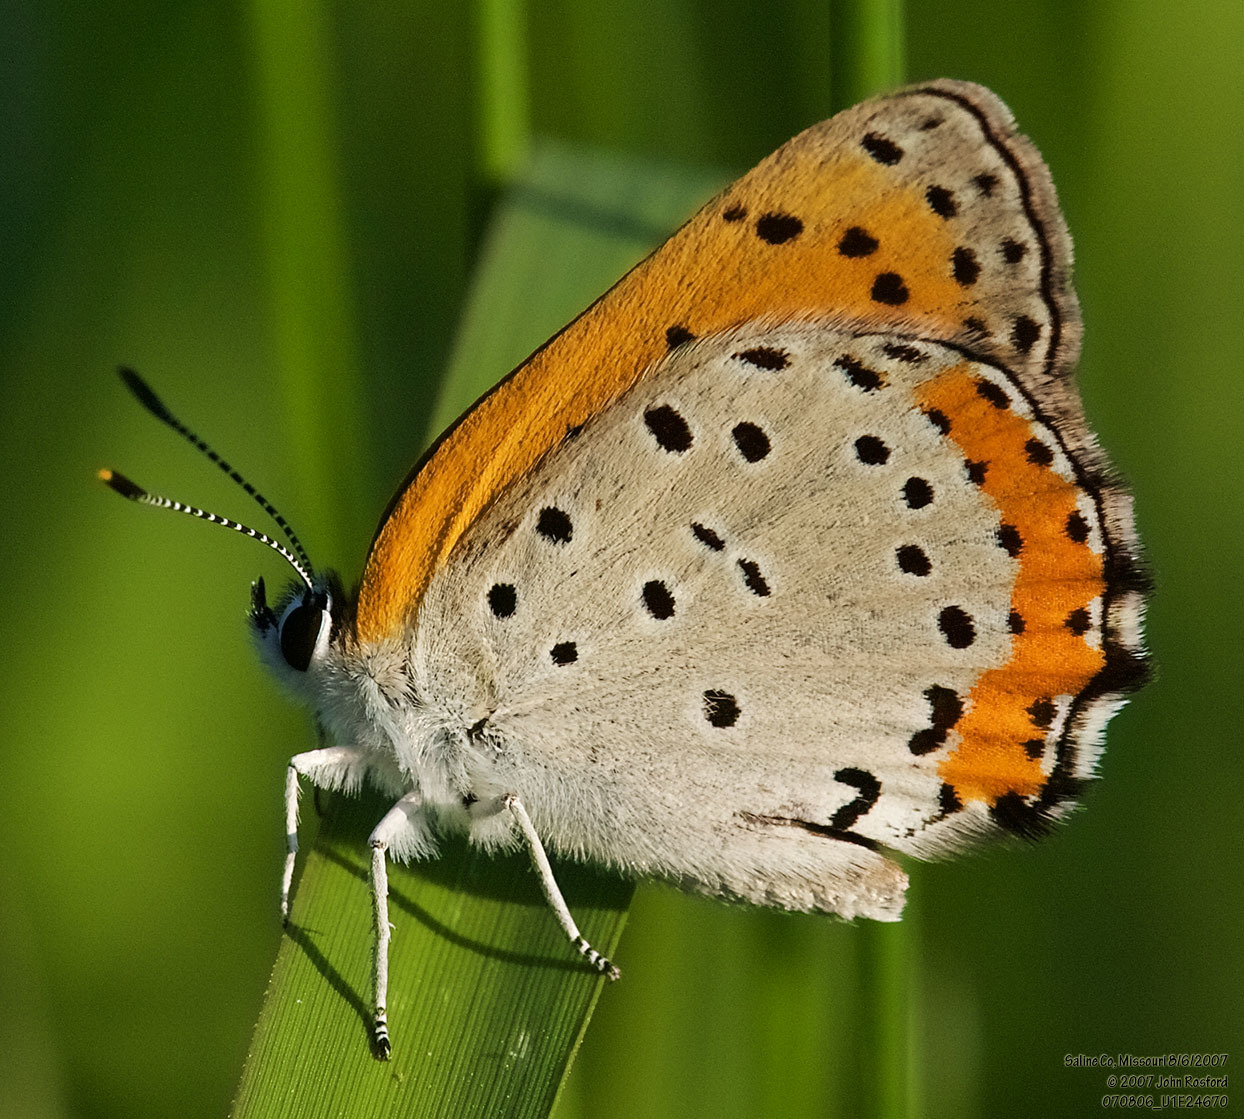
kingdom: Animalia
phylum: Arthropoda
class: Insecta
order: Lepidoptera
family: Lycaenidae
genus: Tharsalea
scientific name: Tharsalea hyllus
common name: Bronze copper
